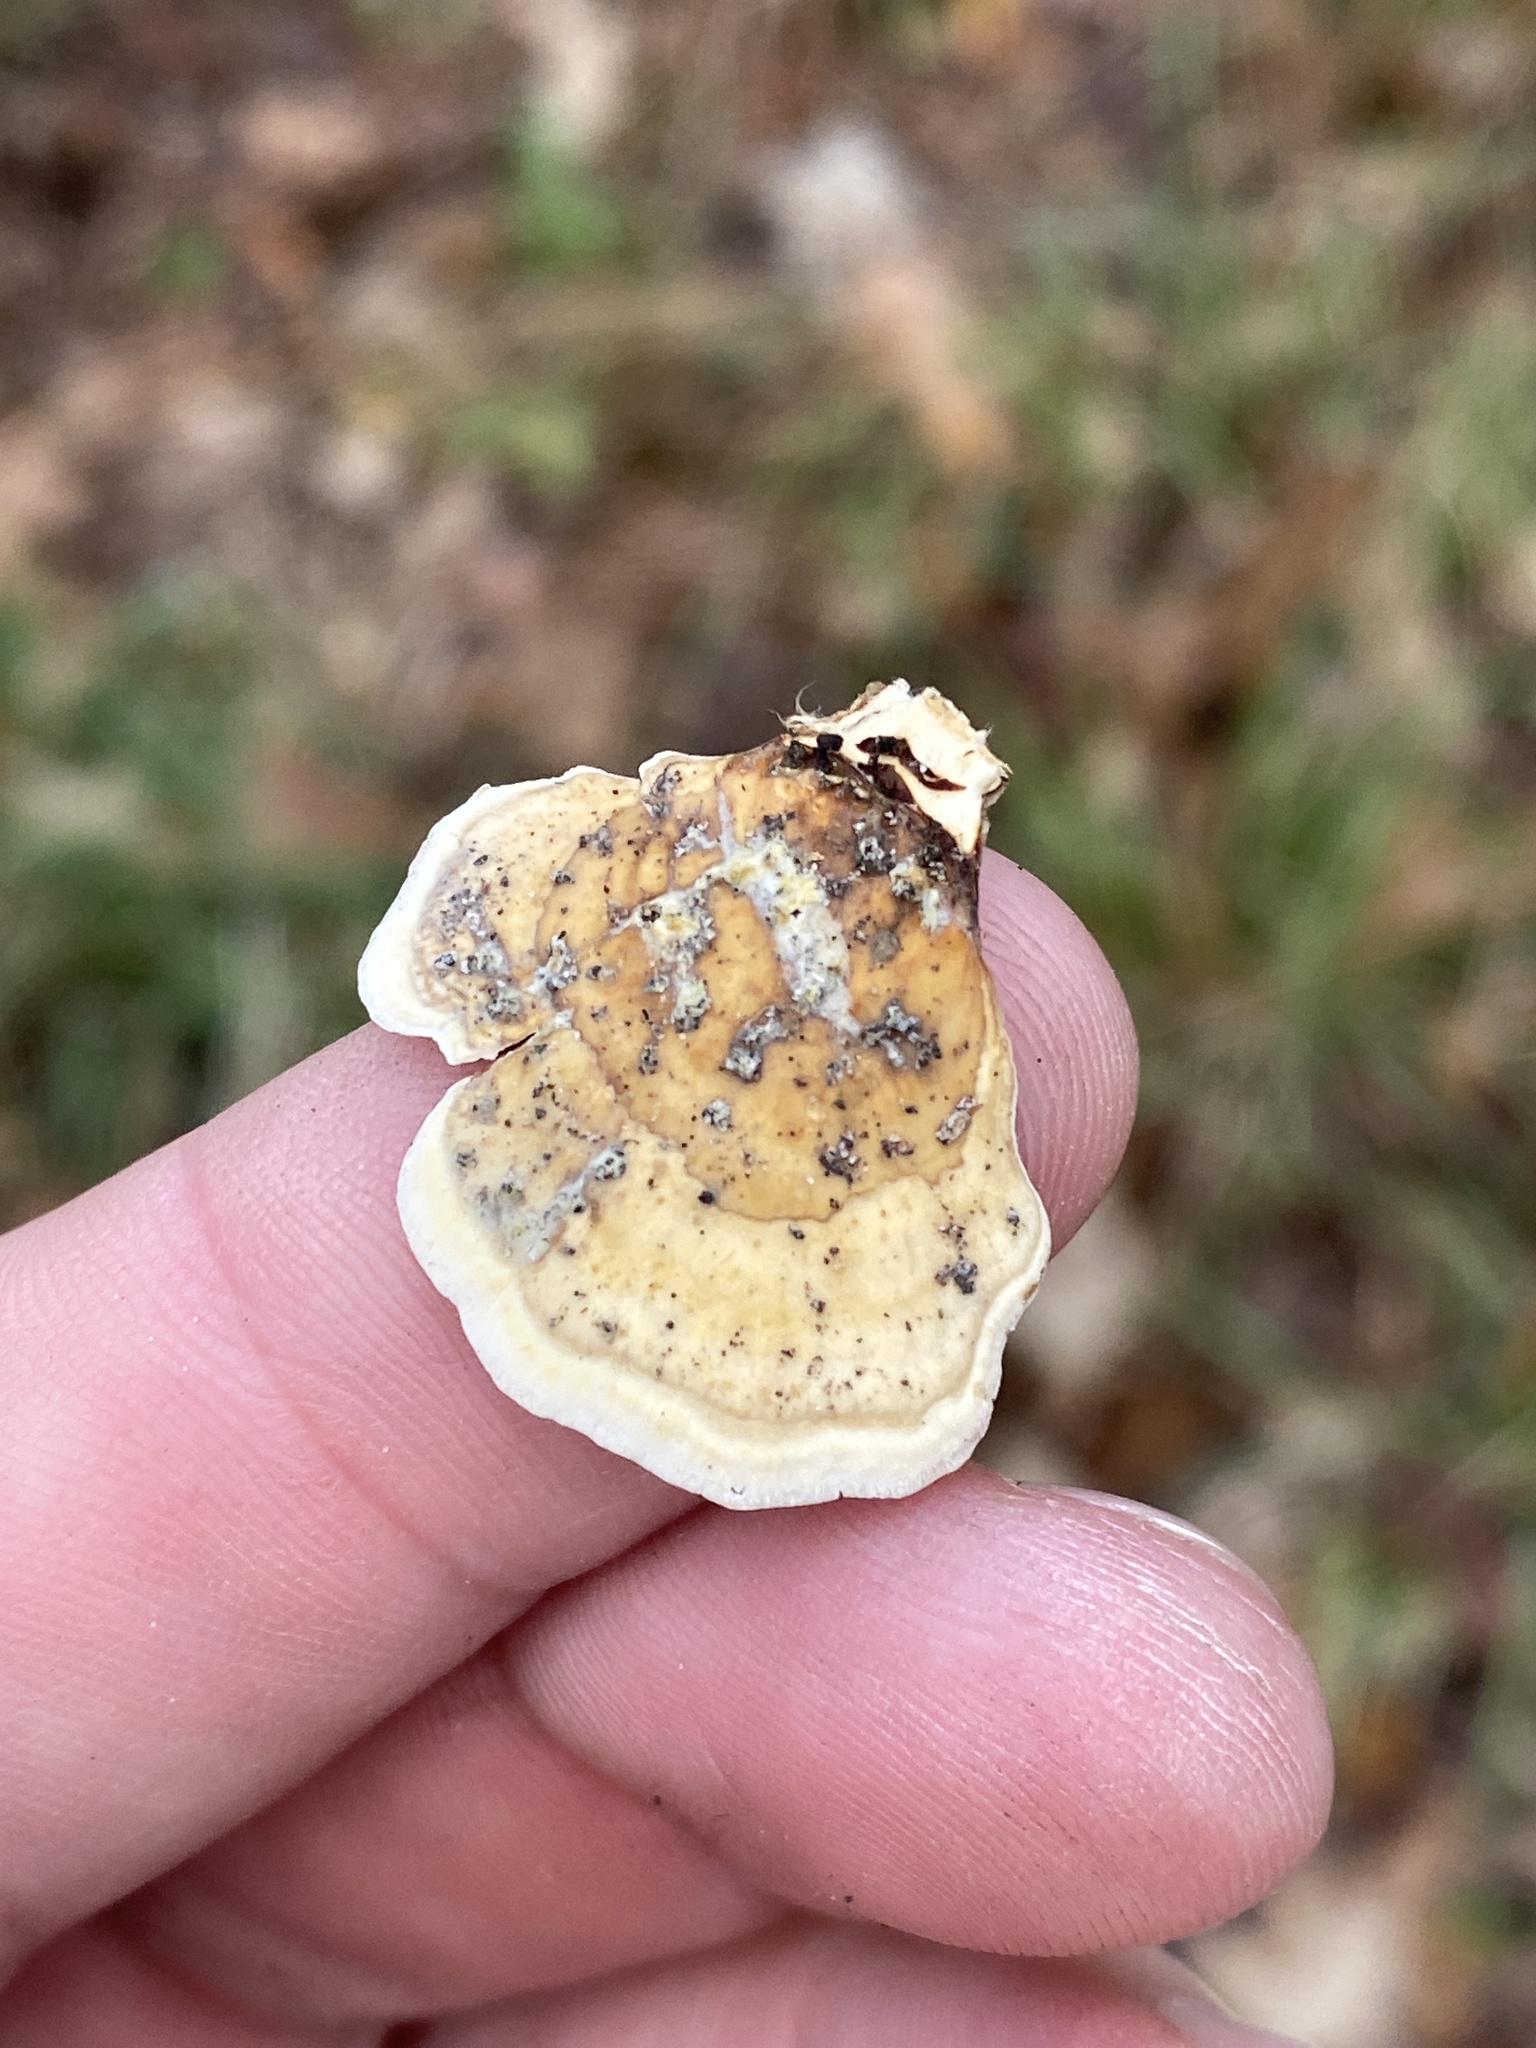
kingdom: Fungi
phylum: Basidiomycota
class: Agaricomycetes
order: Russulales
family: Stereaceae
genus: Stereum
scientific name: Stereum lobatum
